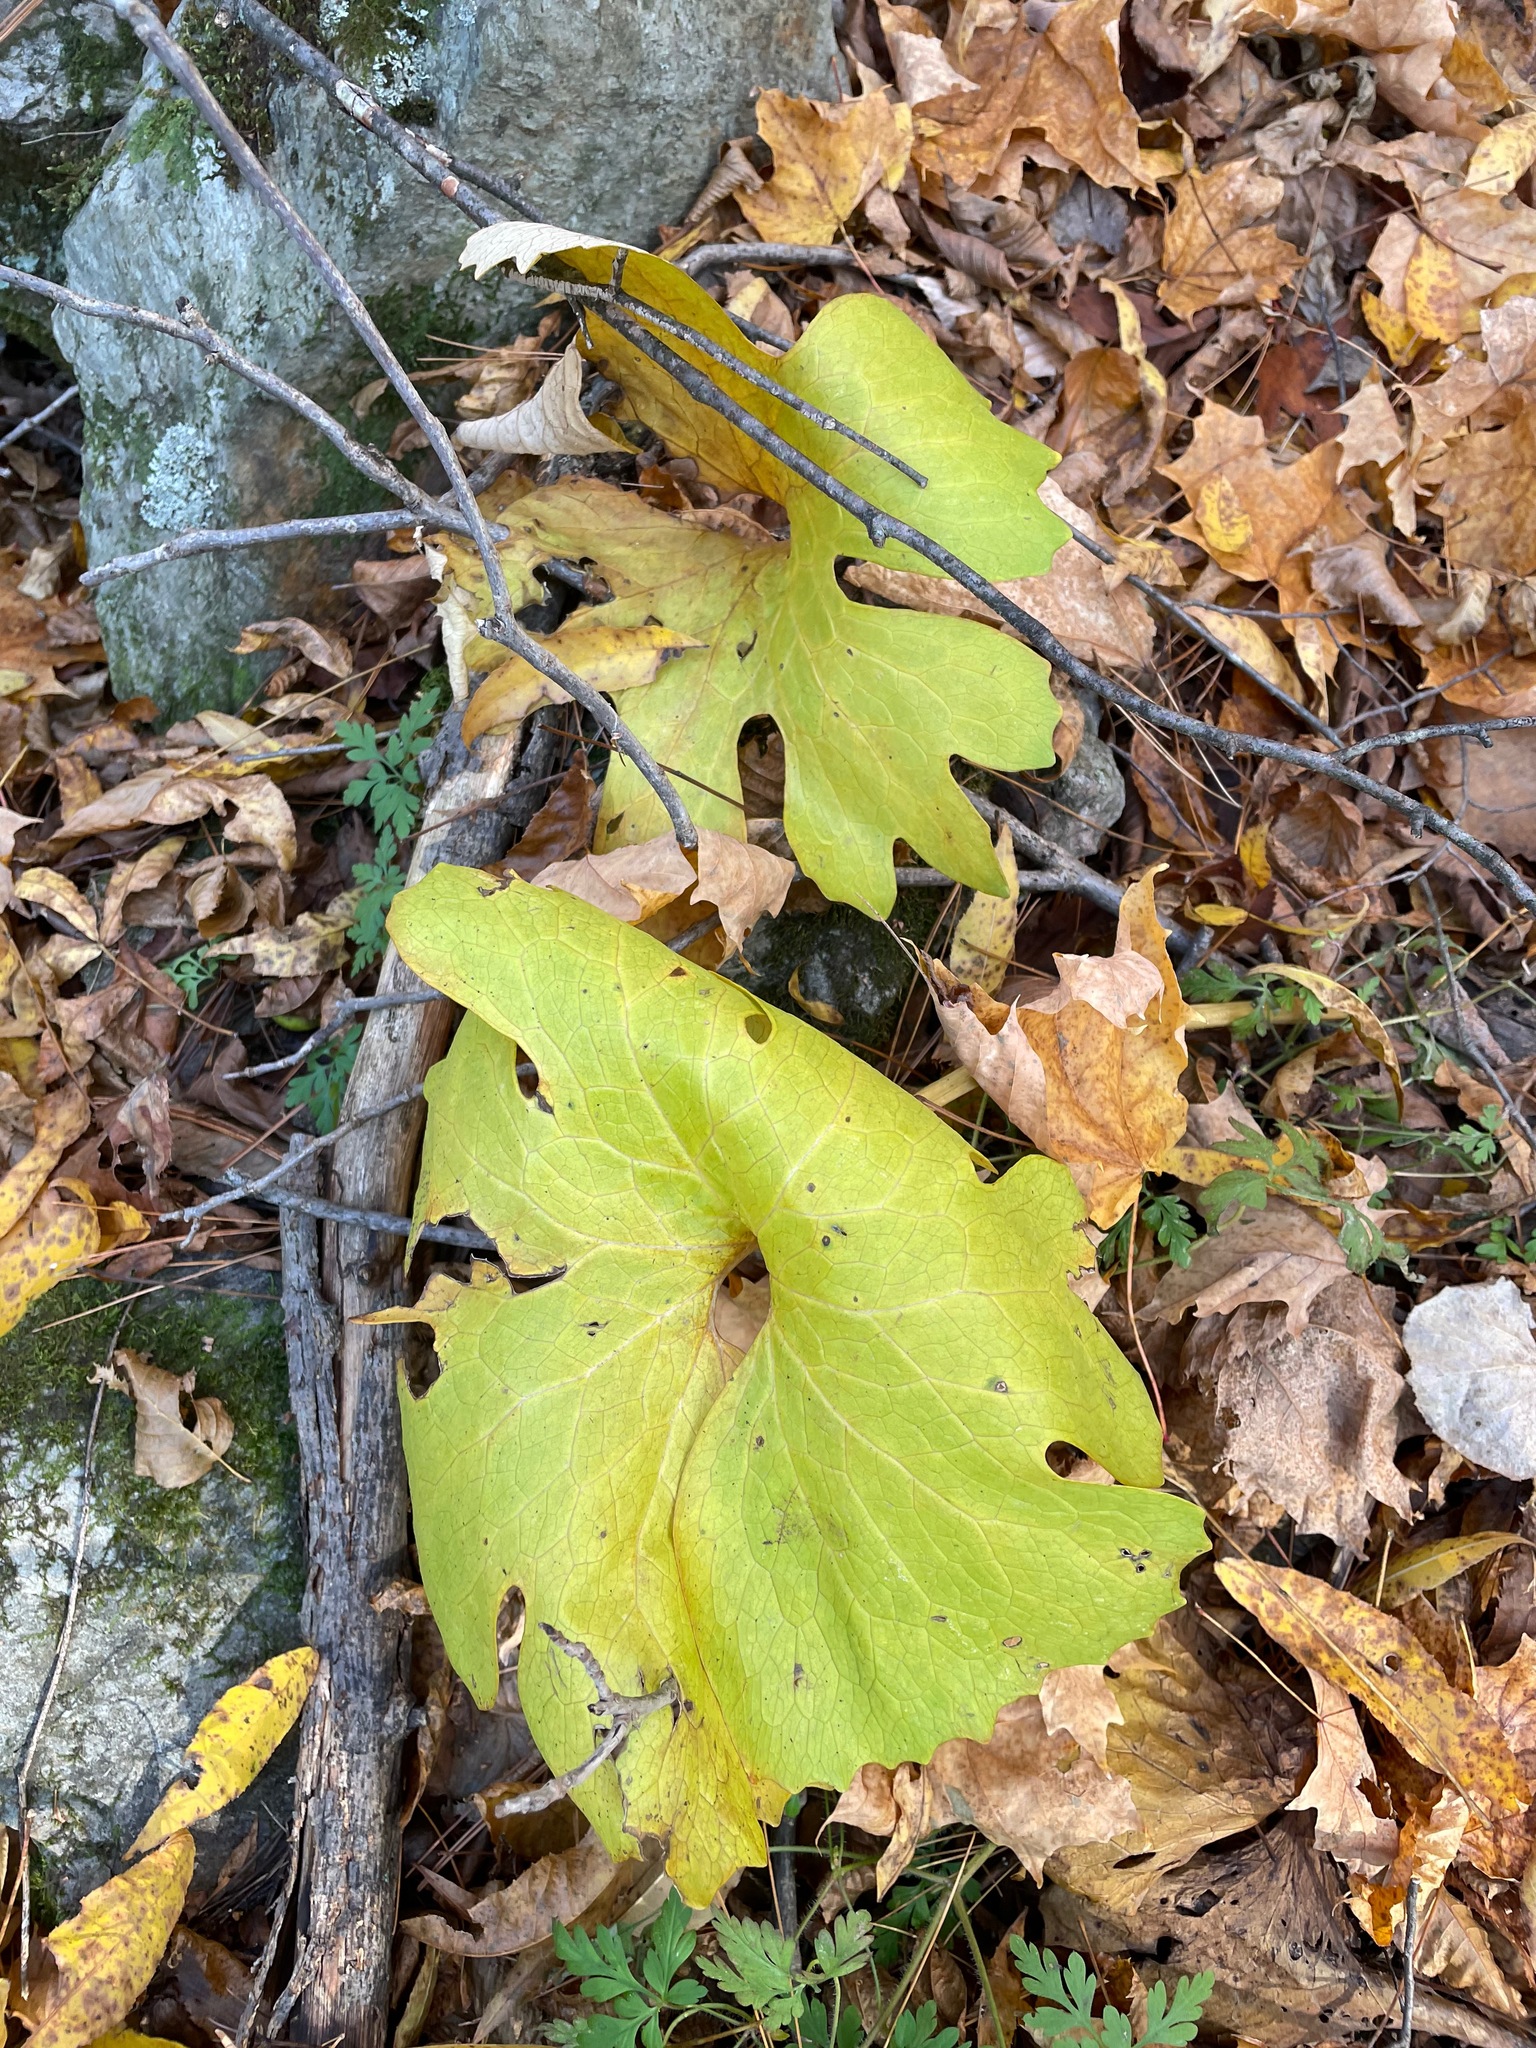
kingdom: Plantae
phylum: Tracheophyta
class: Magnoliopsida
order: Ranunculales
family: Papaveraceae
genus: Sanguinaria
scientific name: Sanguinaria canadensis
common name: Bloodroot
